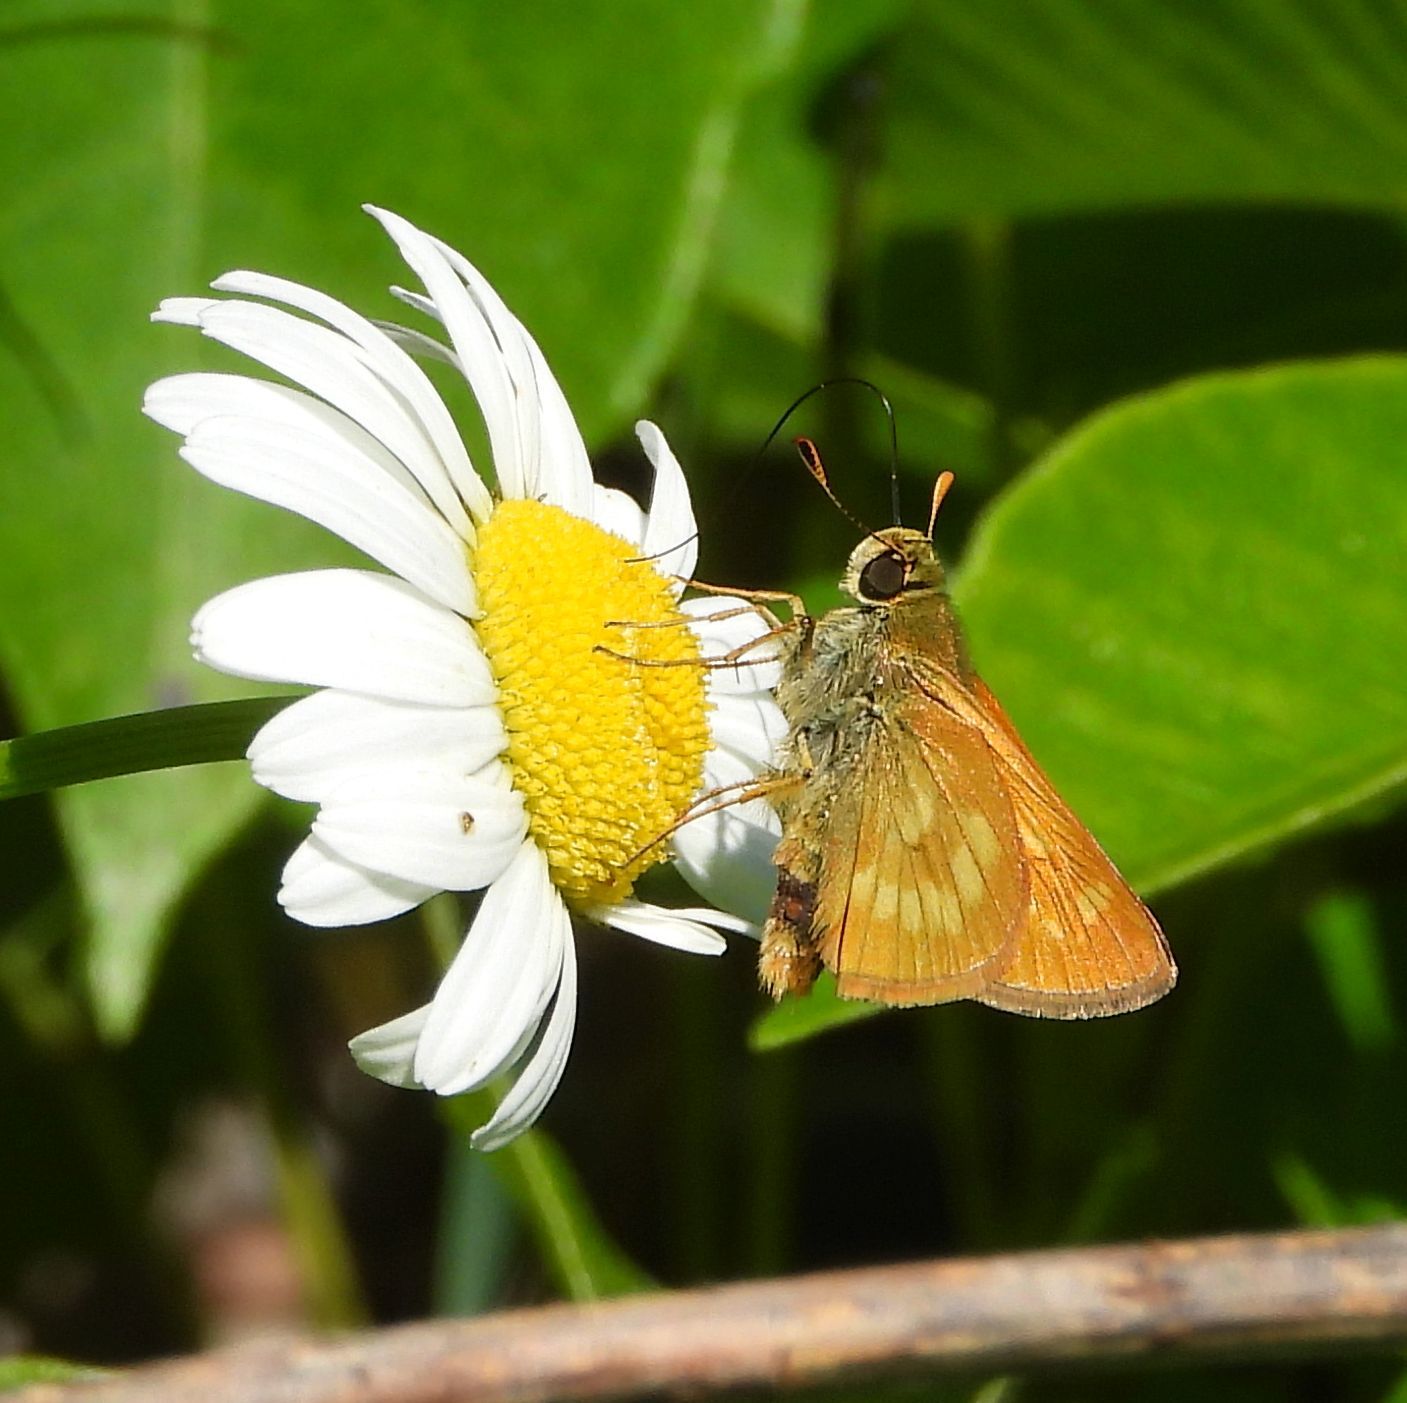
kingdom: Animalia
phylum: Arthropoda
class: Insecta
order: Lepidoptera
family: Hesperiidae
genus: Polites
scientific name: Polites mystic
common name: Long dash
